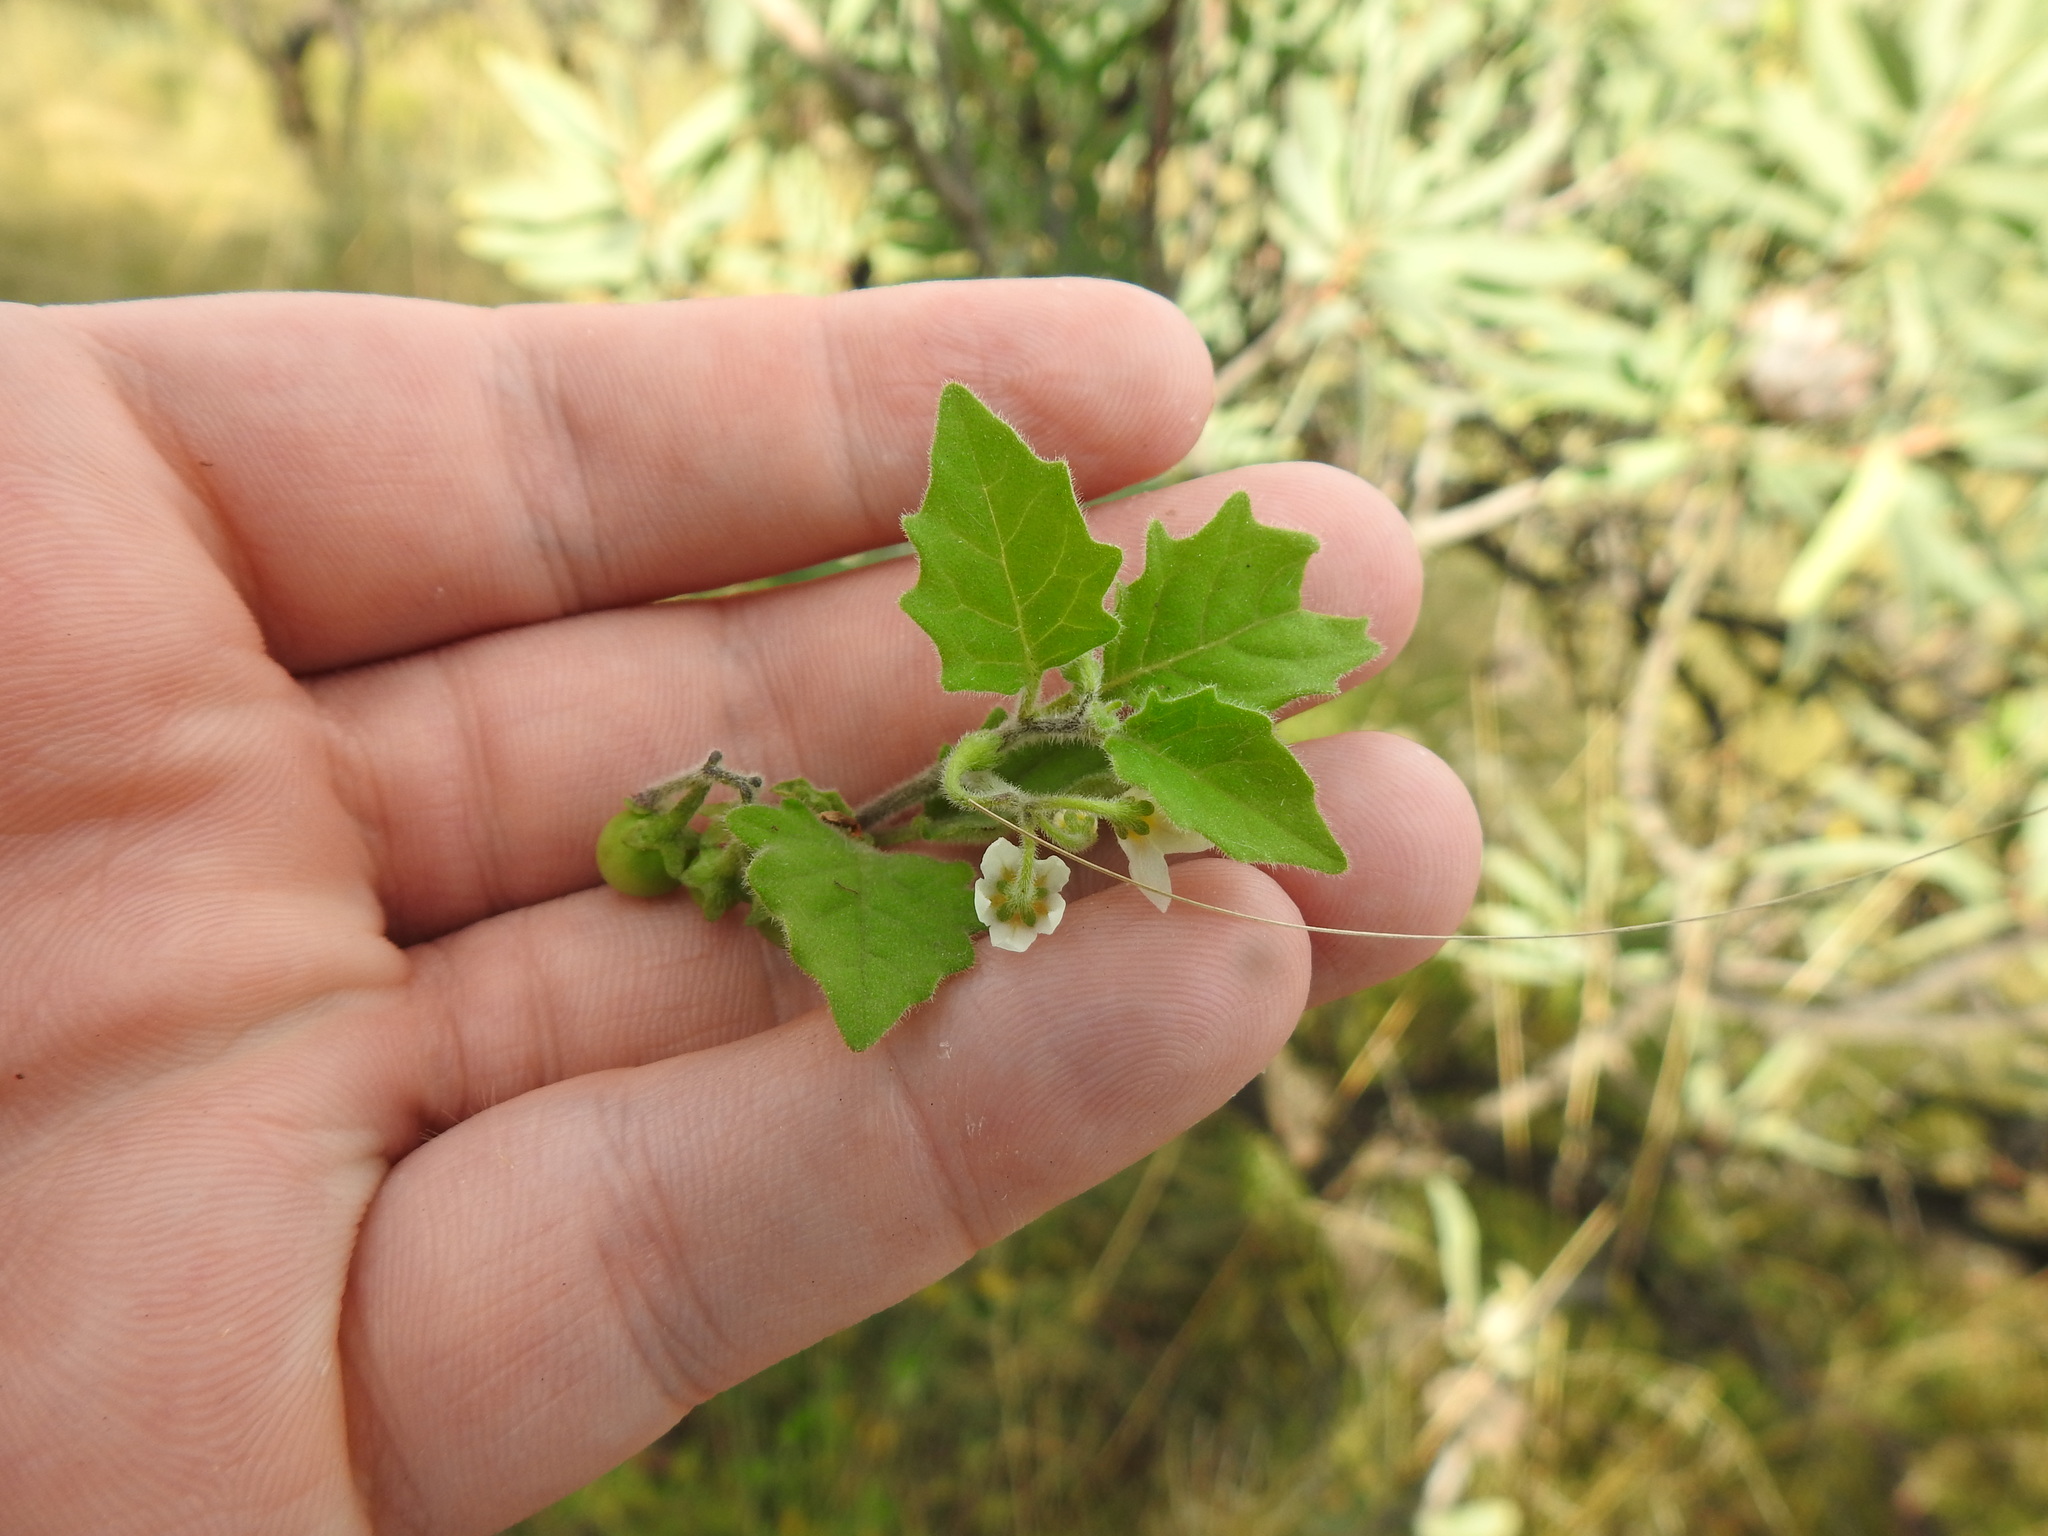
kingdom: Plantae
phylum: Tracheophyta
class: Magnoliopsida
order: Solanales
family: Solanaceae
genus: Solanum
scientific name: Solanum retroflexum
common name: Wonderberry
